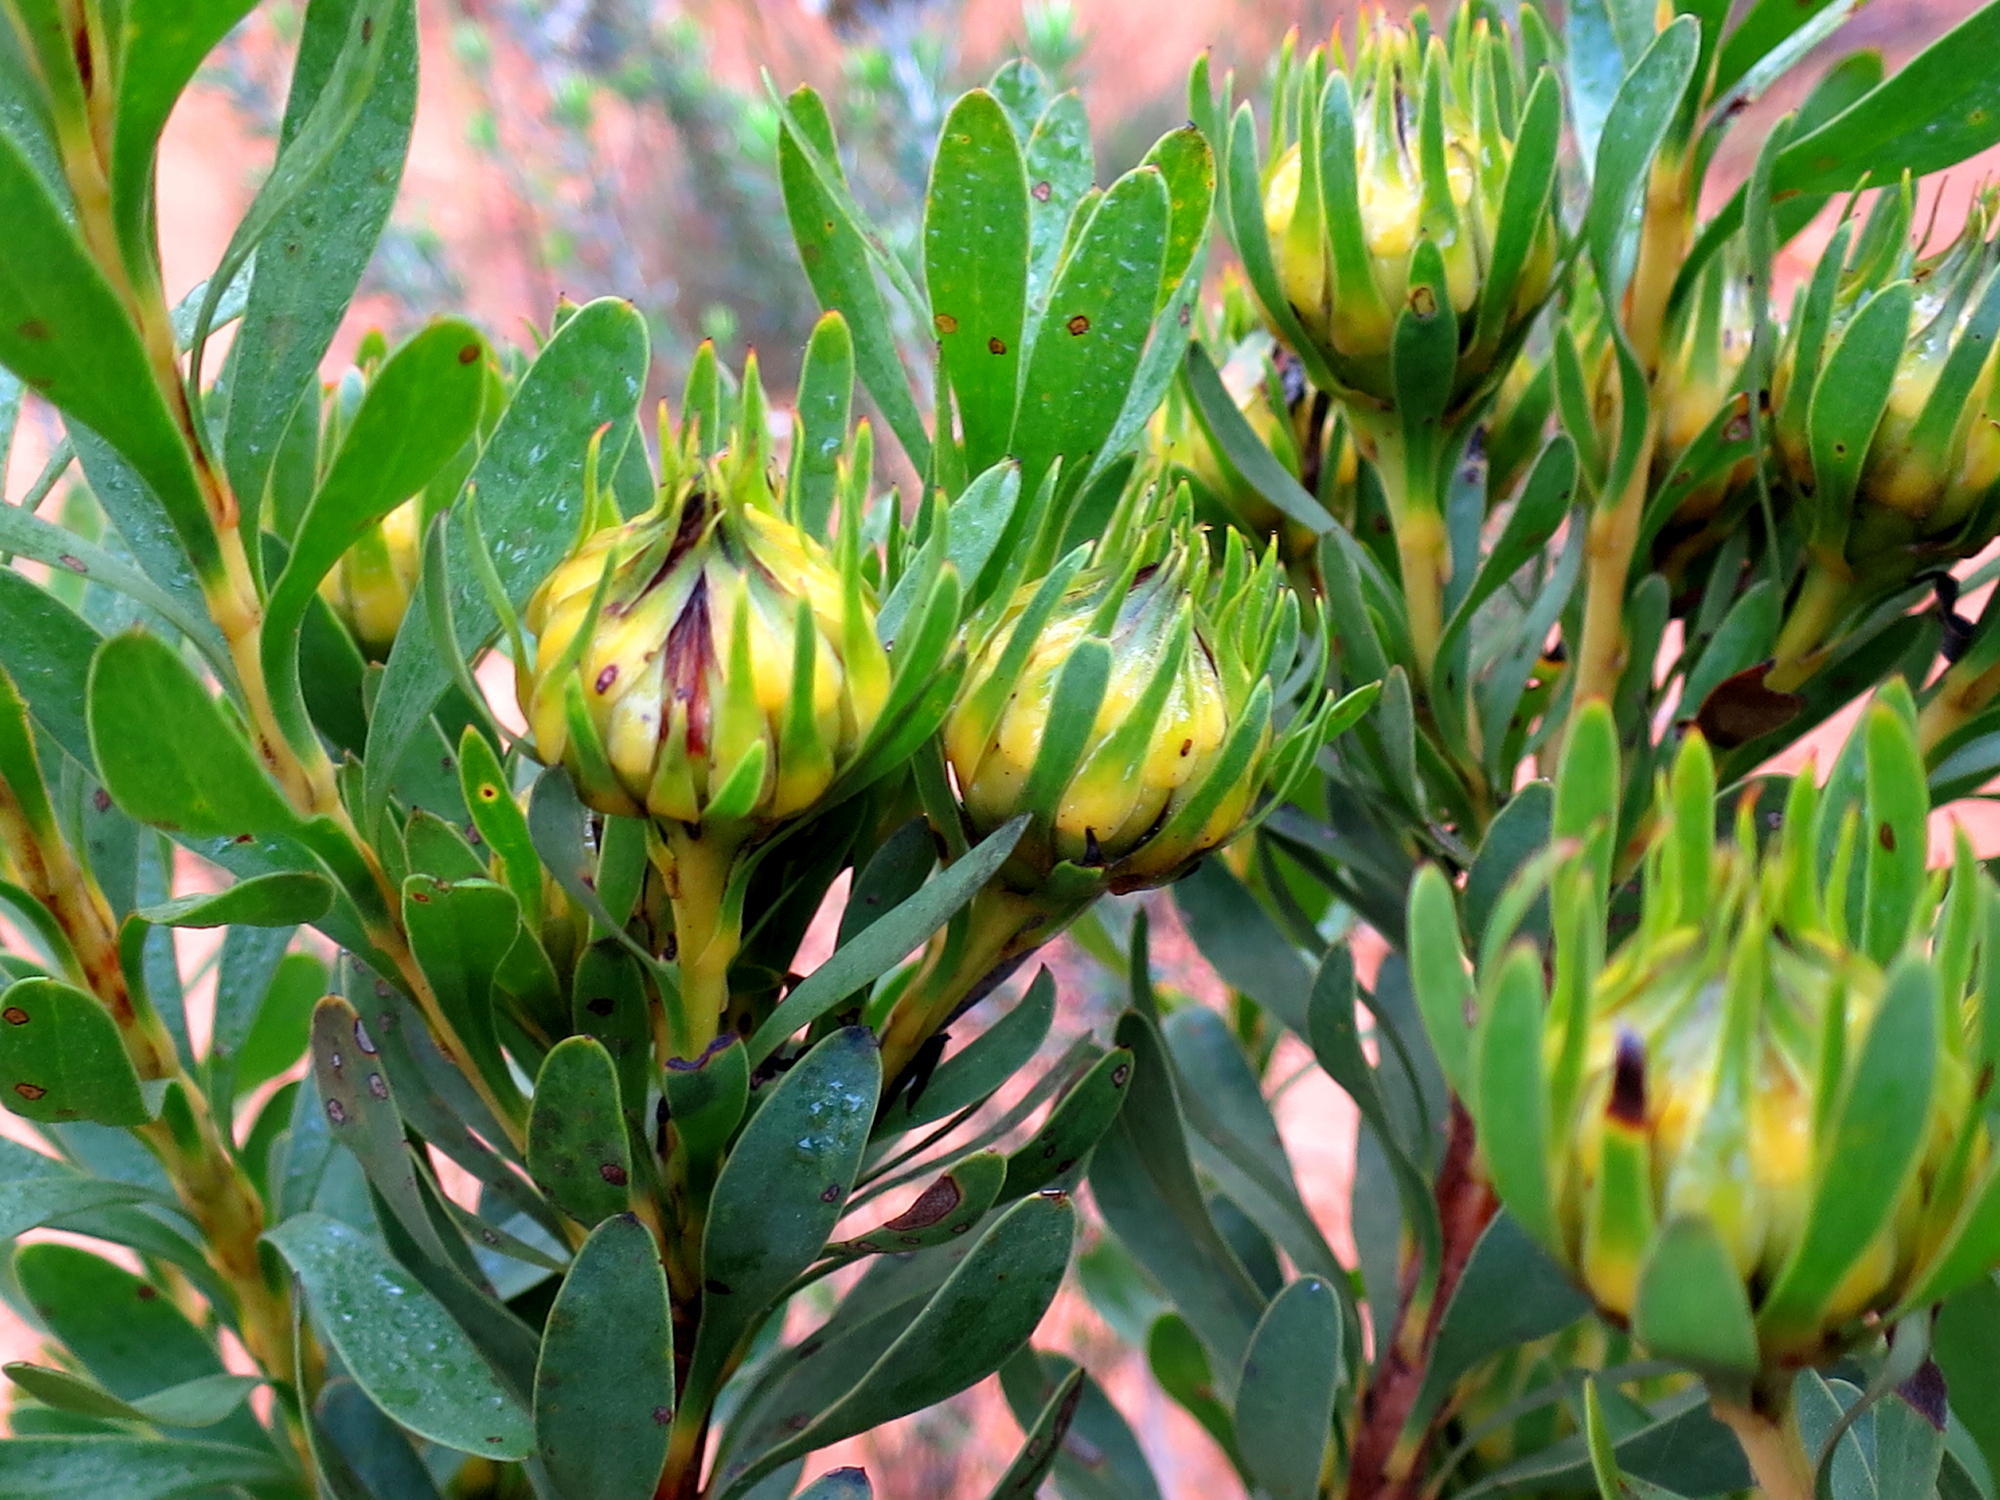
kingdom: Plantae
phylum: Tracheophyta
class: Magnoliopsida
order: Proteales
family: Proteaceae
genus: Aulax
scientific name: Aulax umbellata
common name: Broad-leaf featherbush
